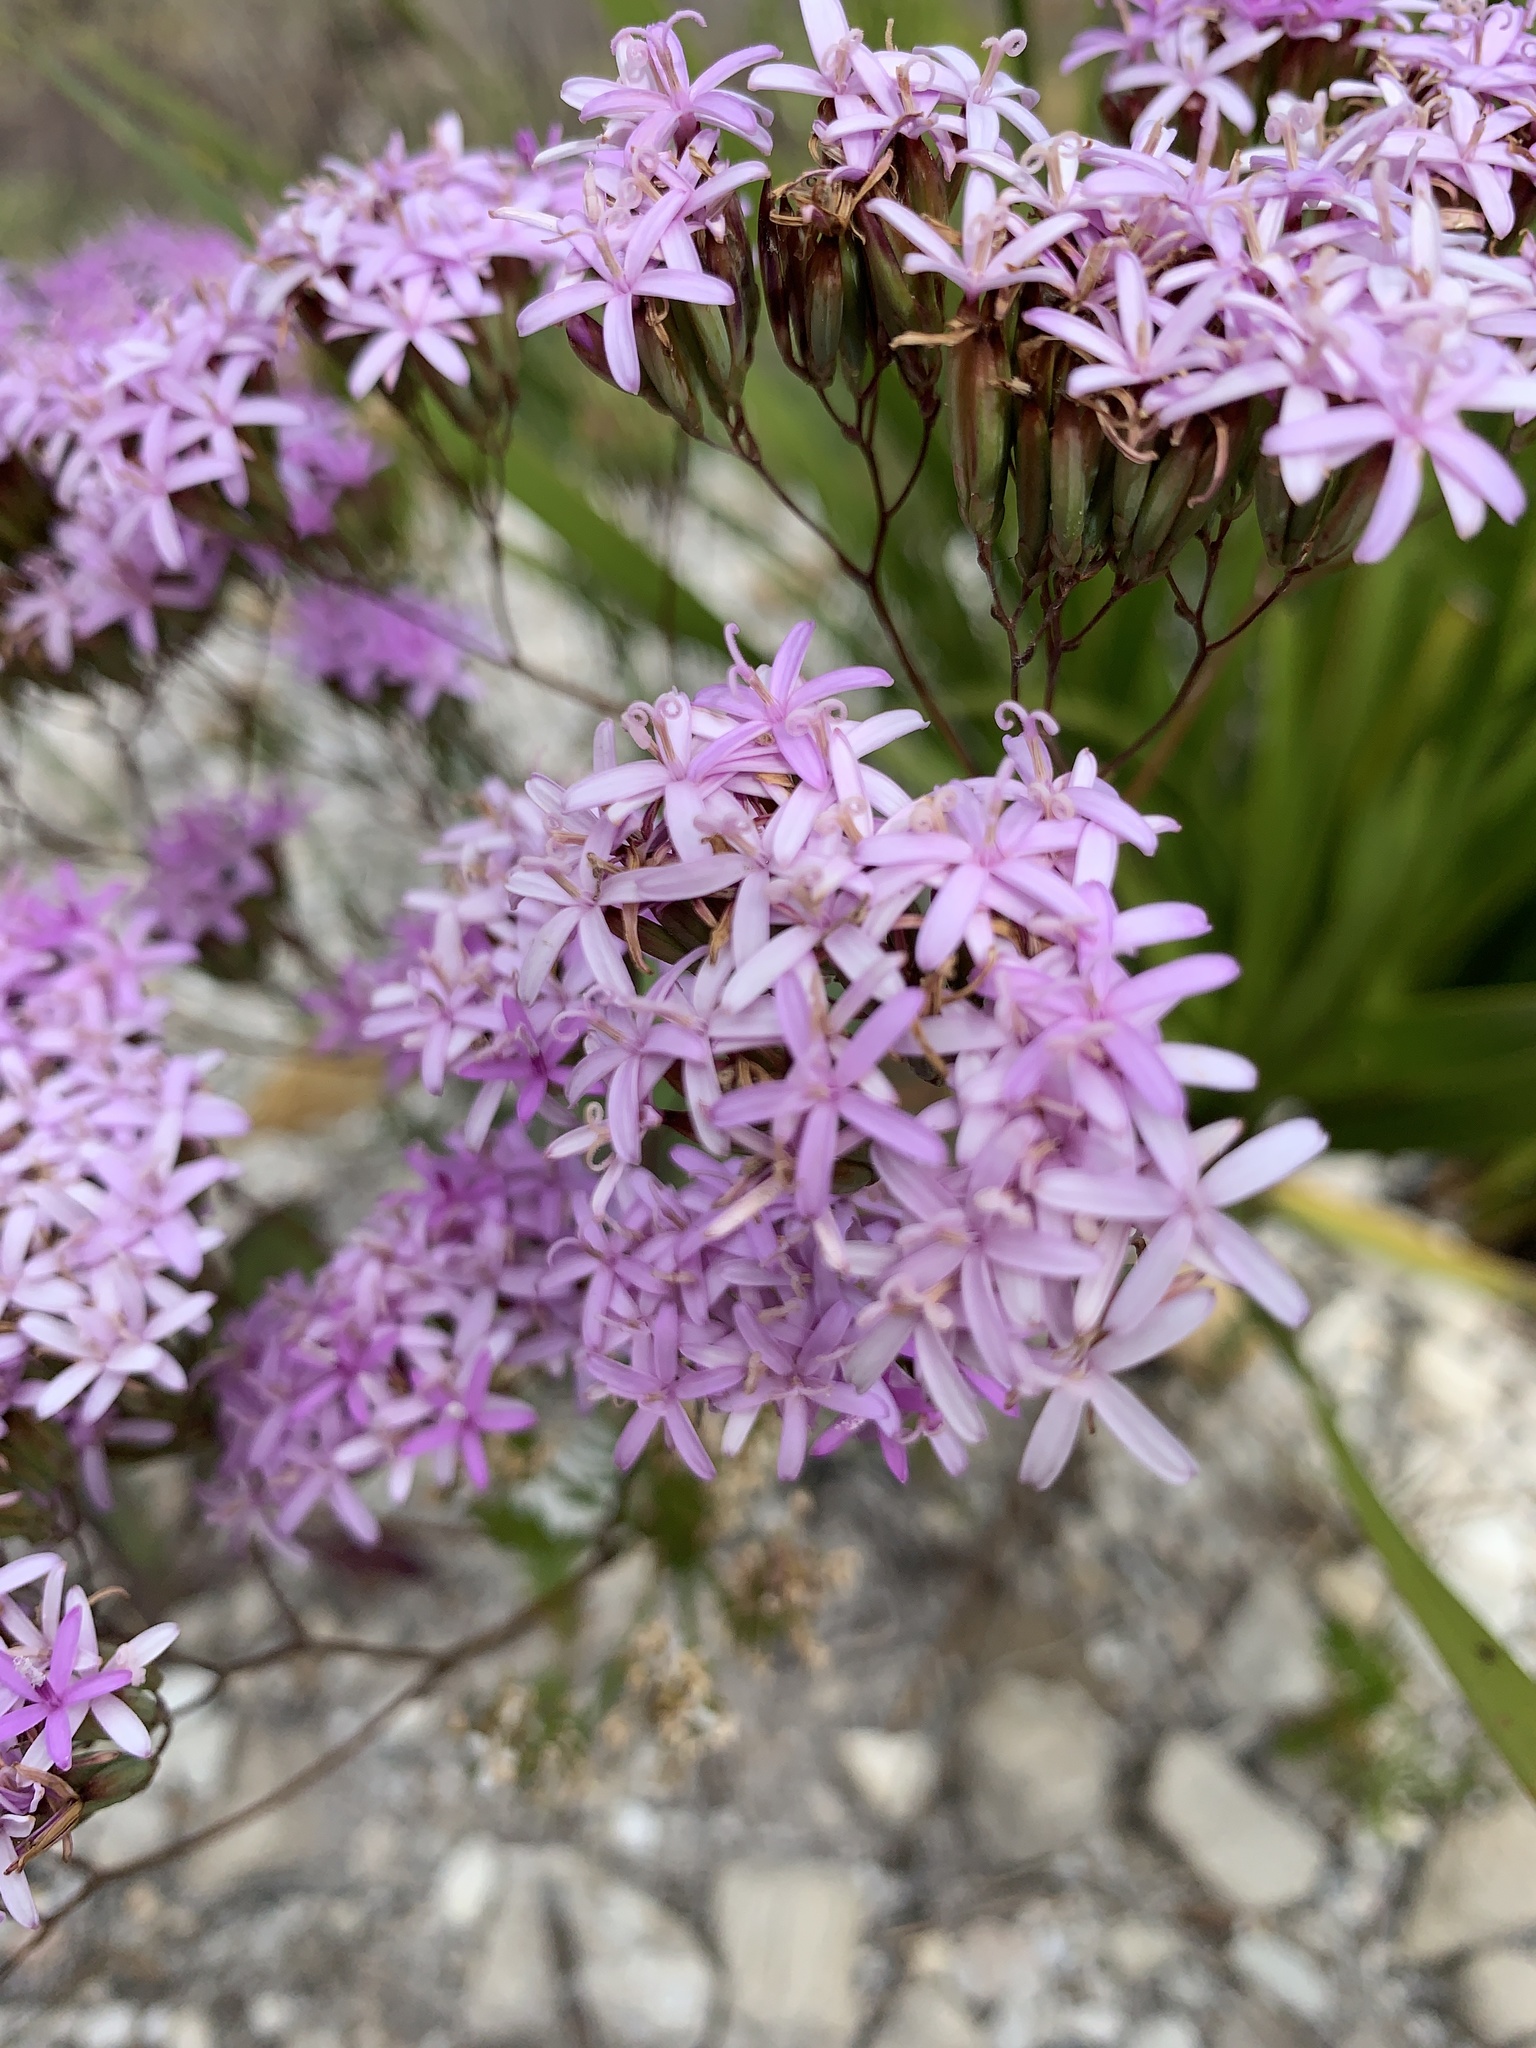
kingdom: Plantae
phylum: Tracheophyta
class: Magnoliopsida
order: Asterales
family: Asteraceae
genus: Corymbium
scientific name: Corymbium glabrum
